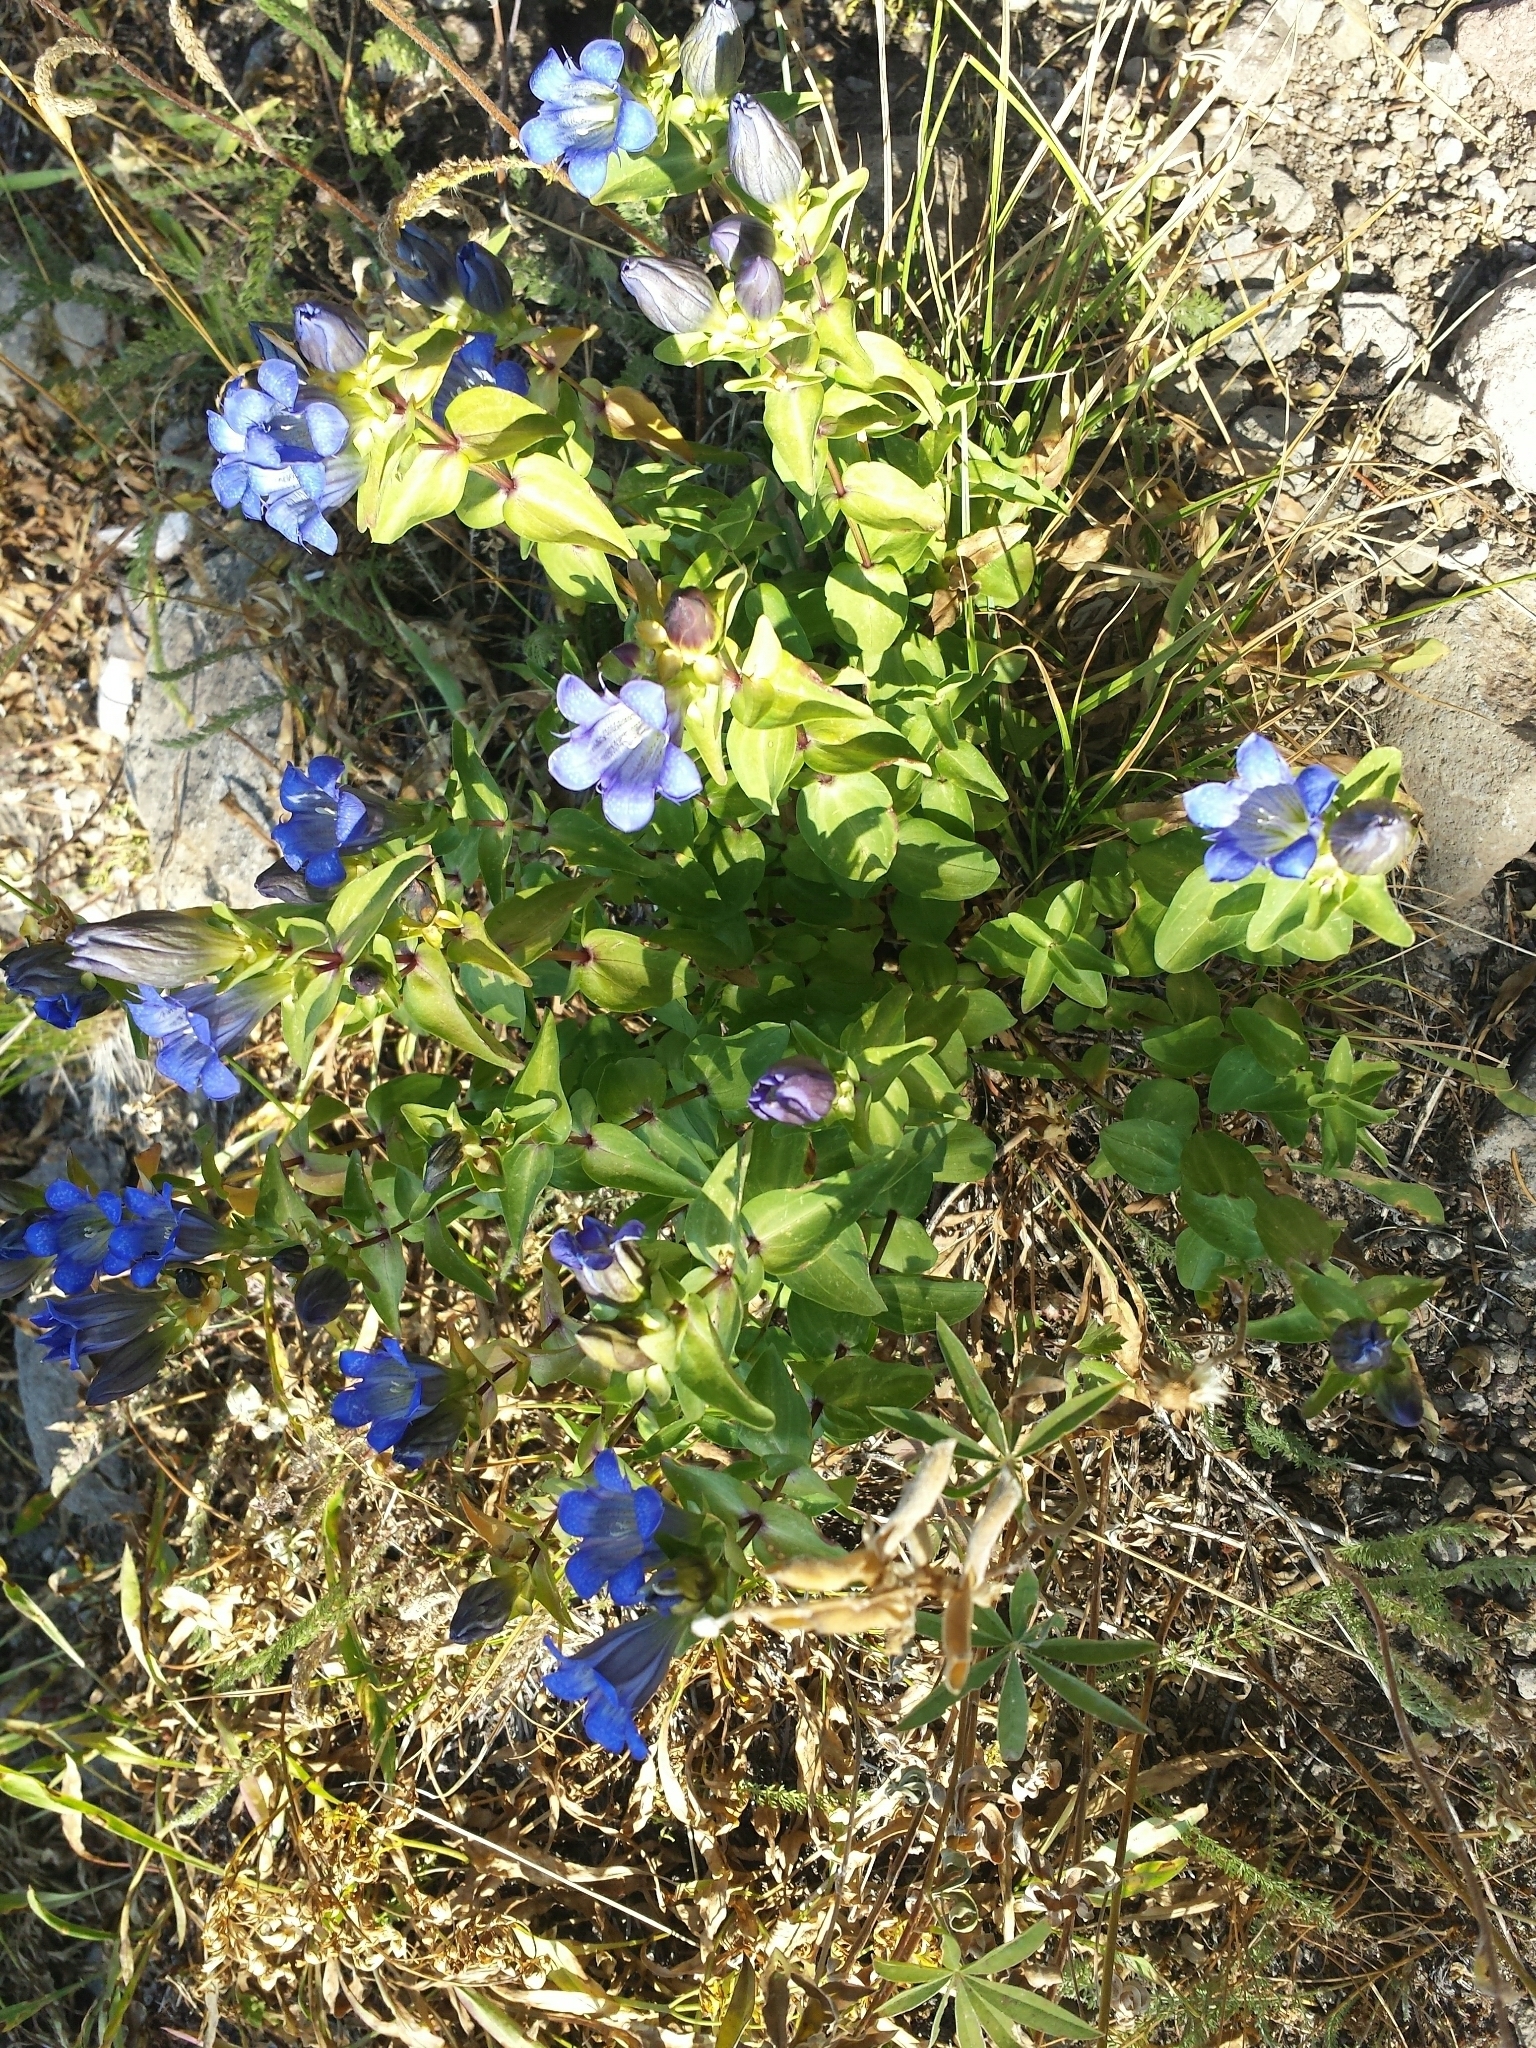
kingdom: Plantae
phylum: Tracheophyta
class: Magnoliopsida
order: Gentianales
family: Gentianaceae
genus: Gentiana
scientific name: Gentiana calycosa
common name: Rainier pleated gentian
